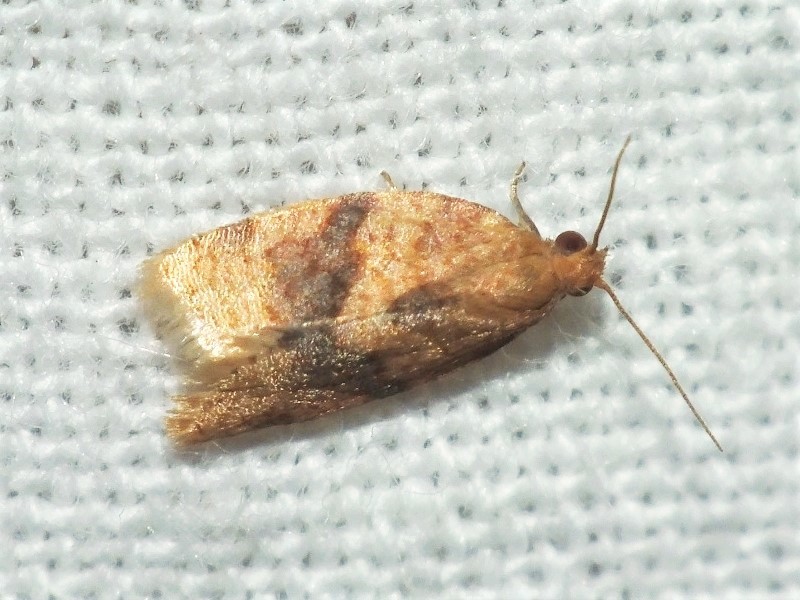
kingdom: Animalia
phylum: Arthropoda
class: Insecta
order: Lepidoptera
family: Tortricidae
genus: Clepsis
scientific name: Clepsis neglectana
